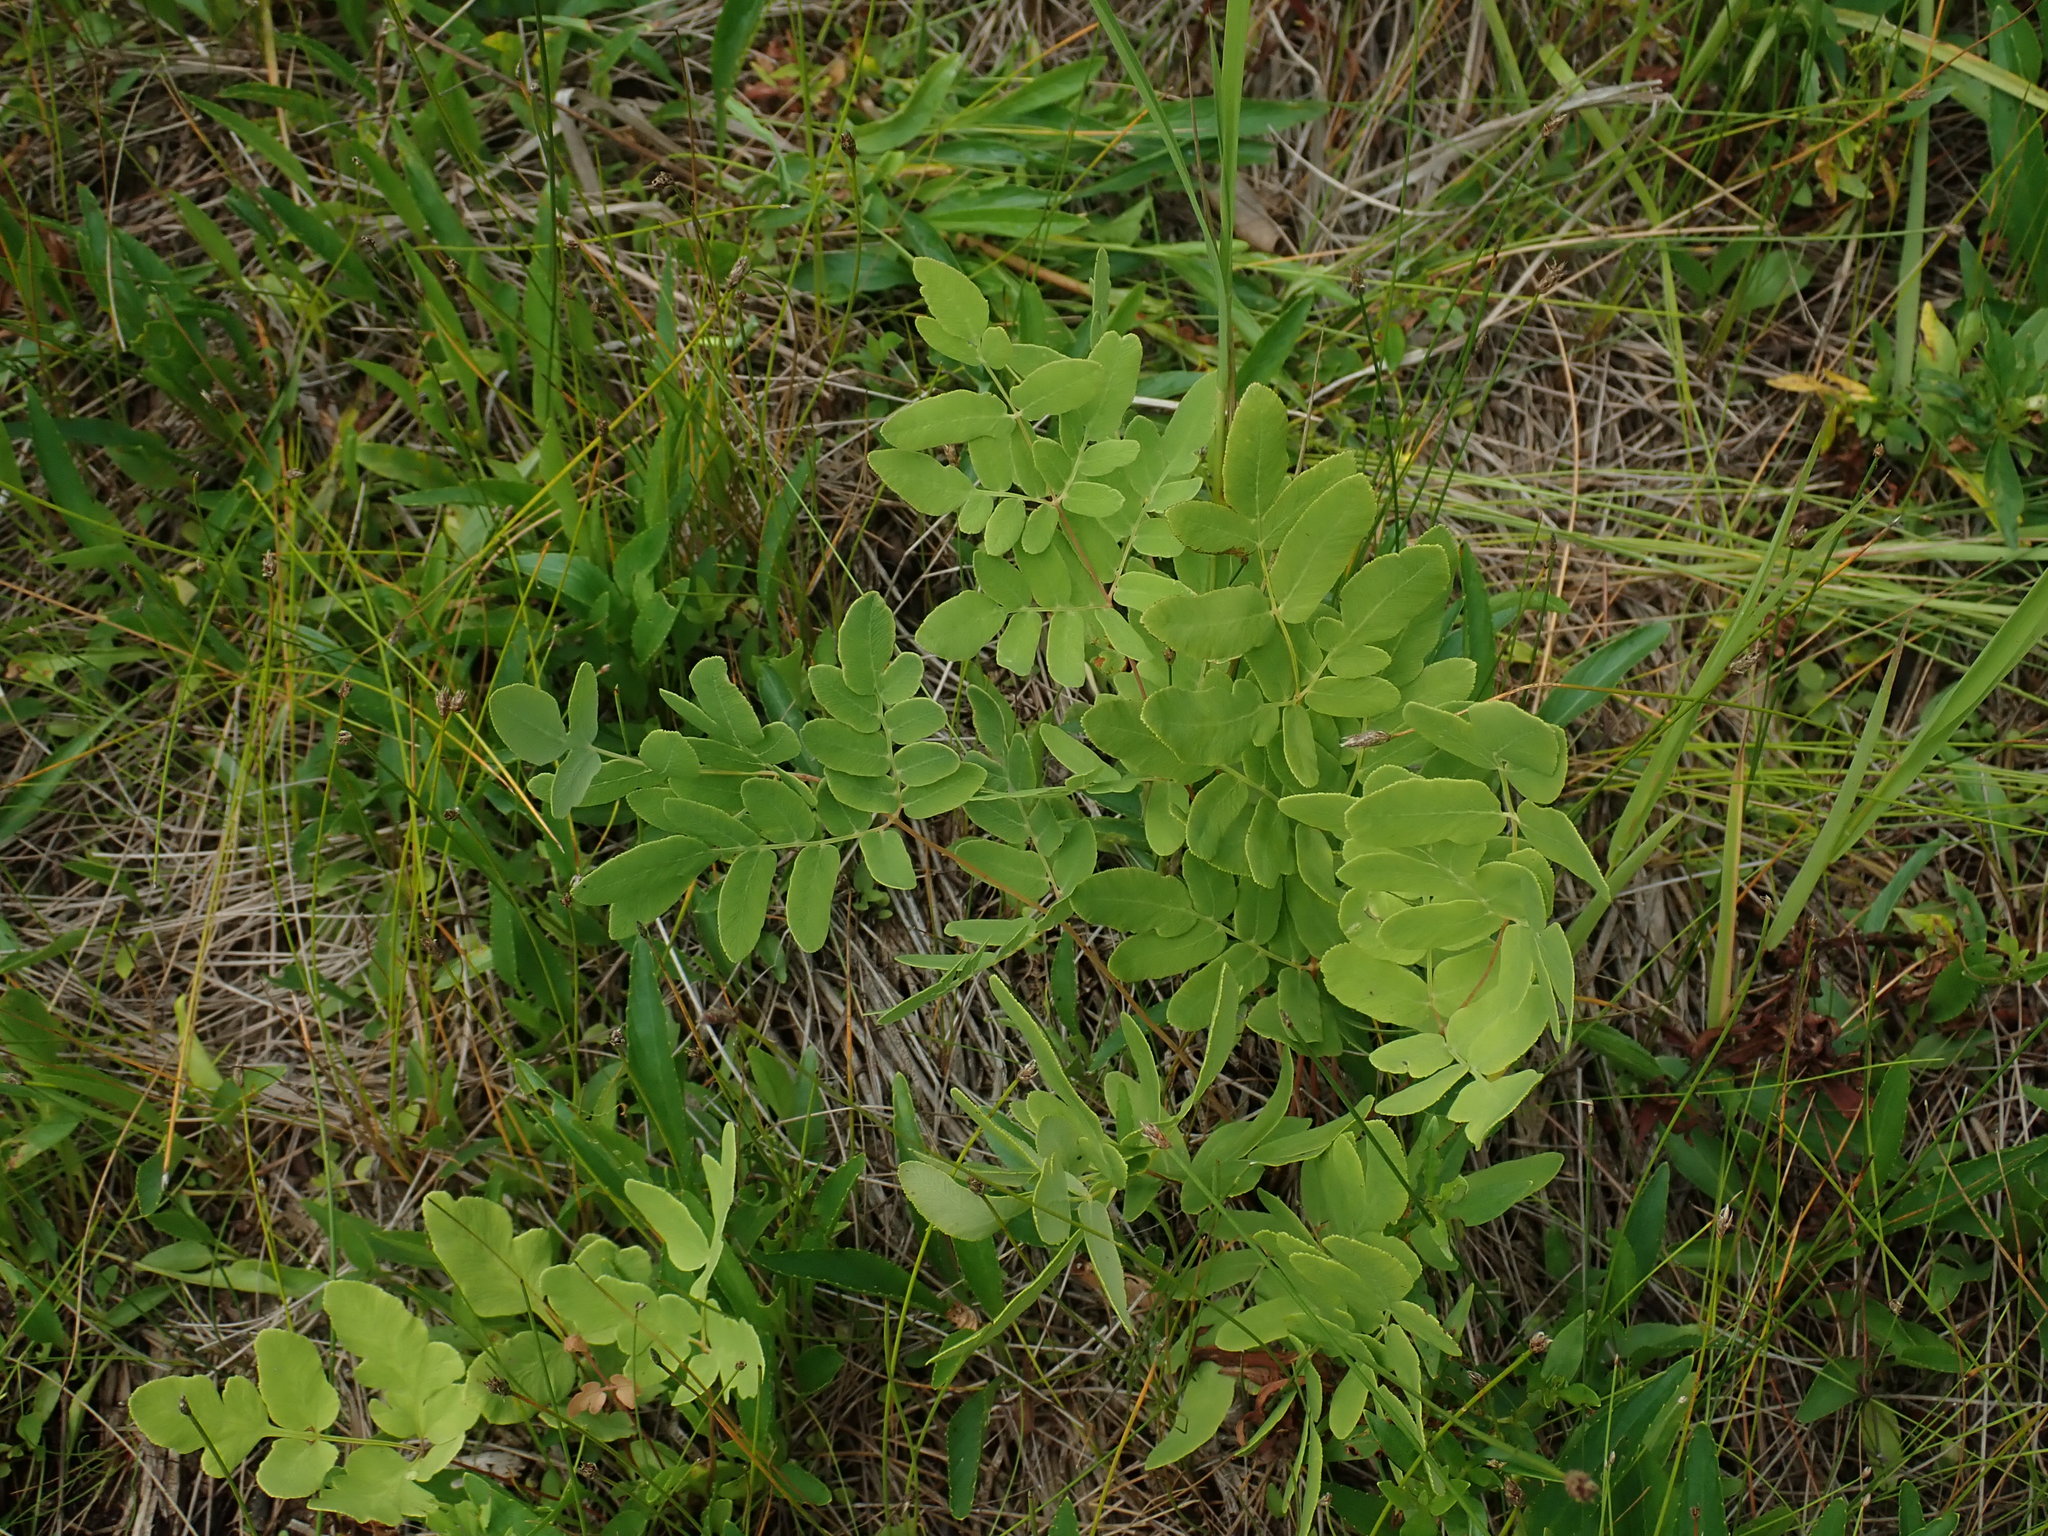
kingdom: Plantae
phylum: Tracheophyta
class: Polypodiopsida
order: Osmundales
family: Osmundaceae
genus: Osmunda
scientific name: Osmunda spectabilis
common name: American royal fern
